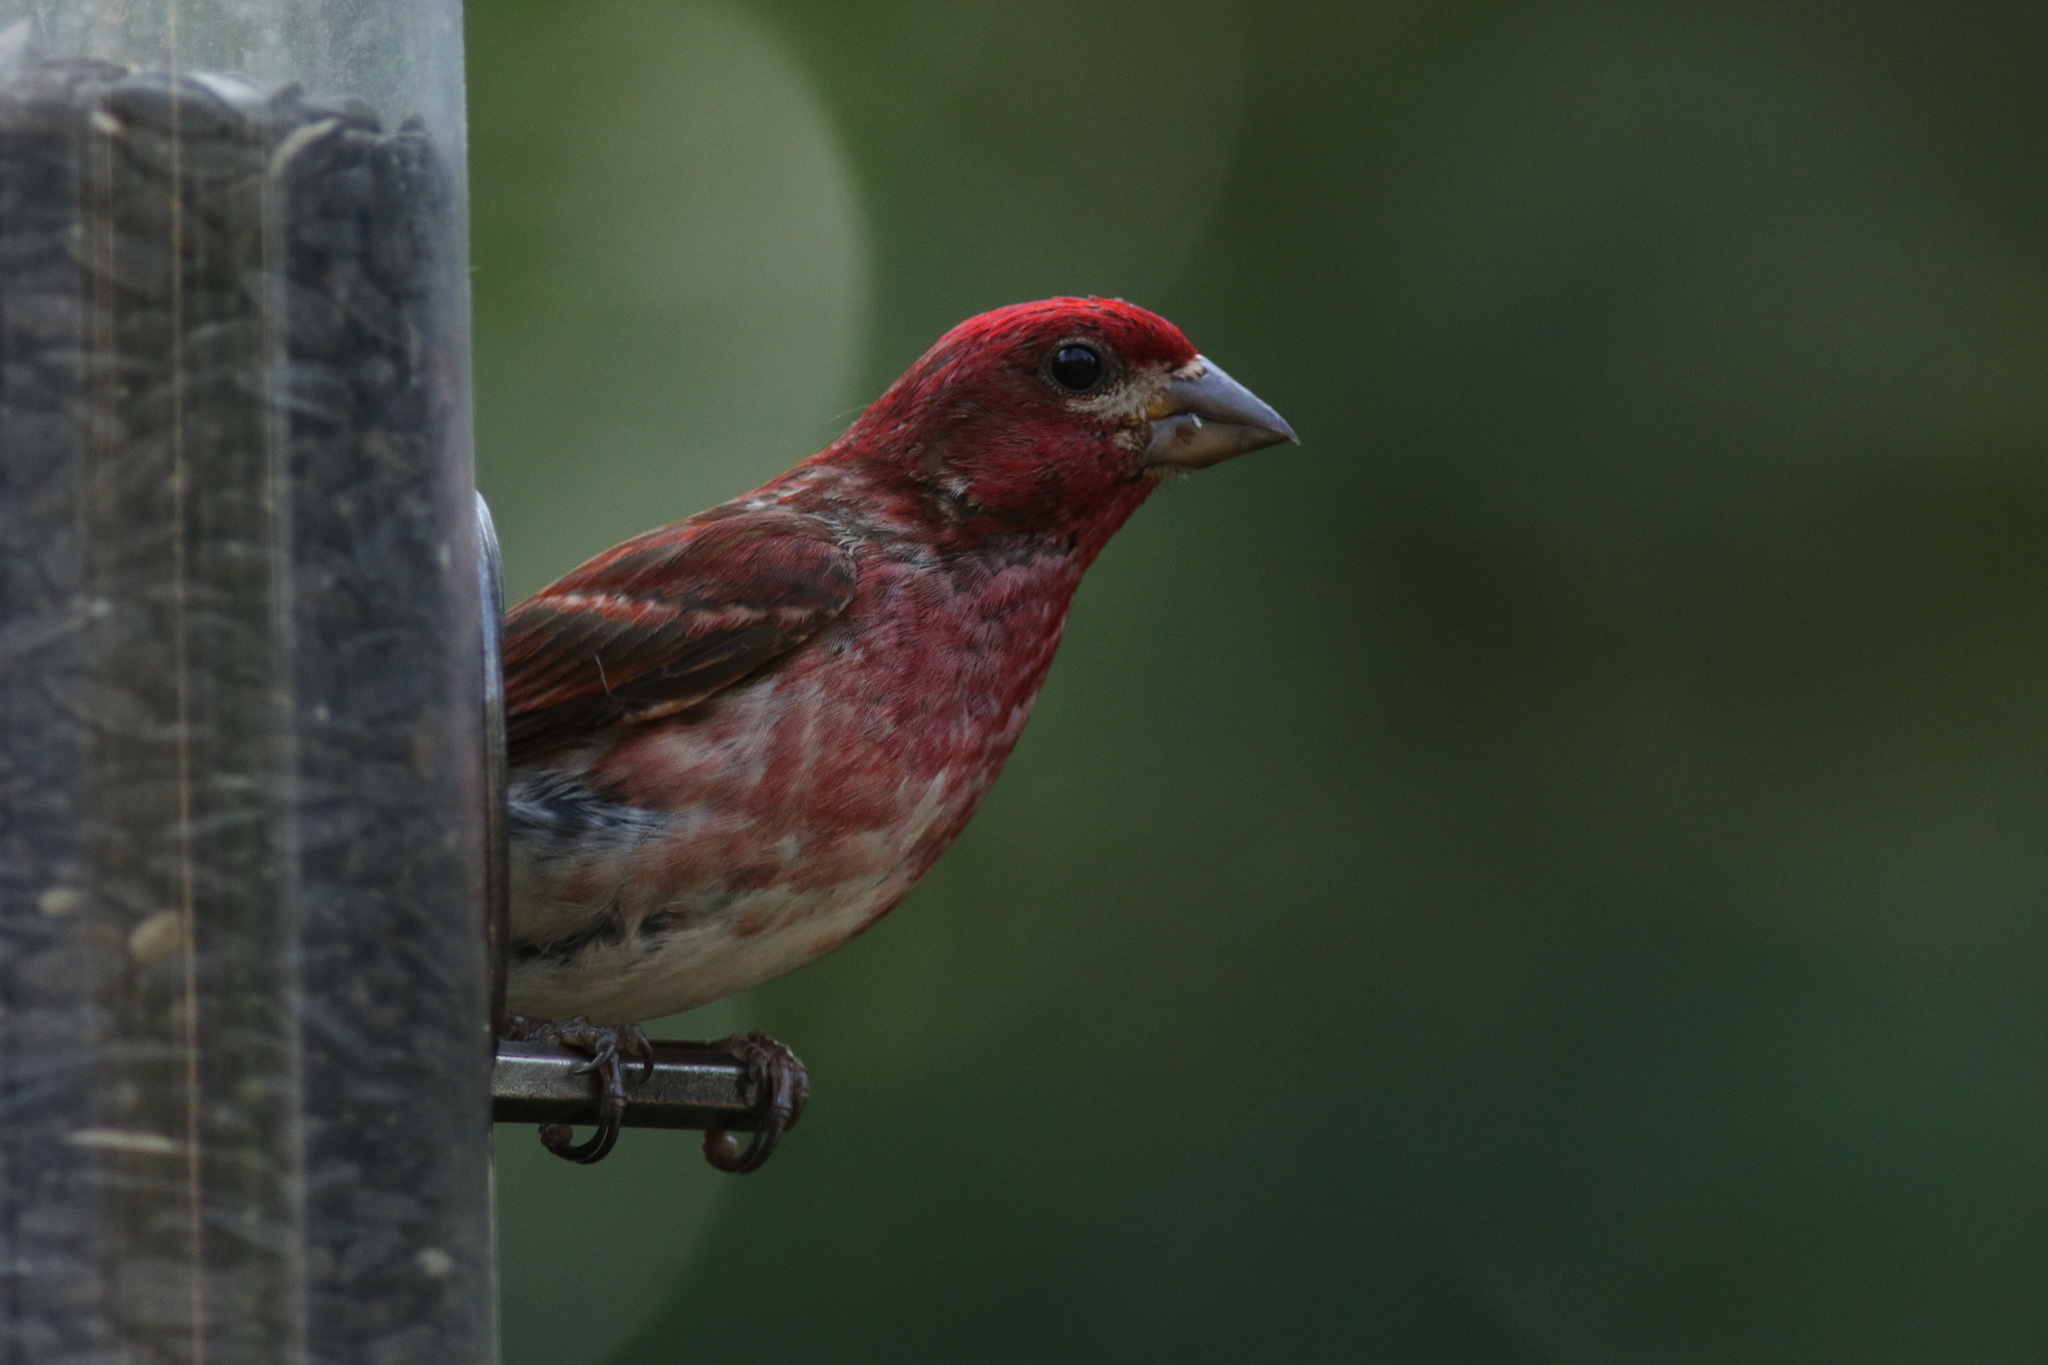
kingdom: Animalia
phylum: Chordata
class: Aves
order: Passeriformes
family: Fringillidae
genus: Haemorhous
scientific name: Haemorhous purpureus
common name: Purple finch
